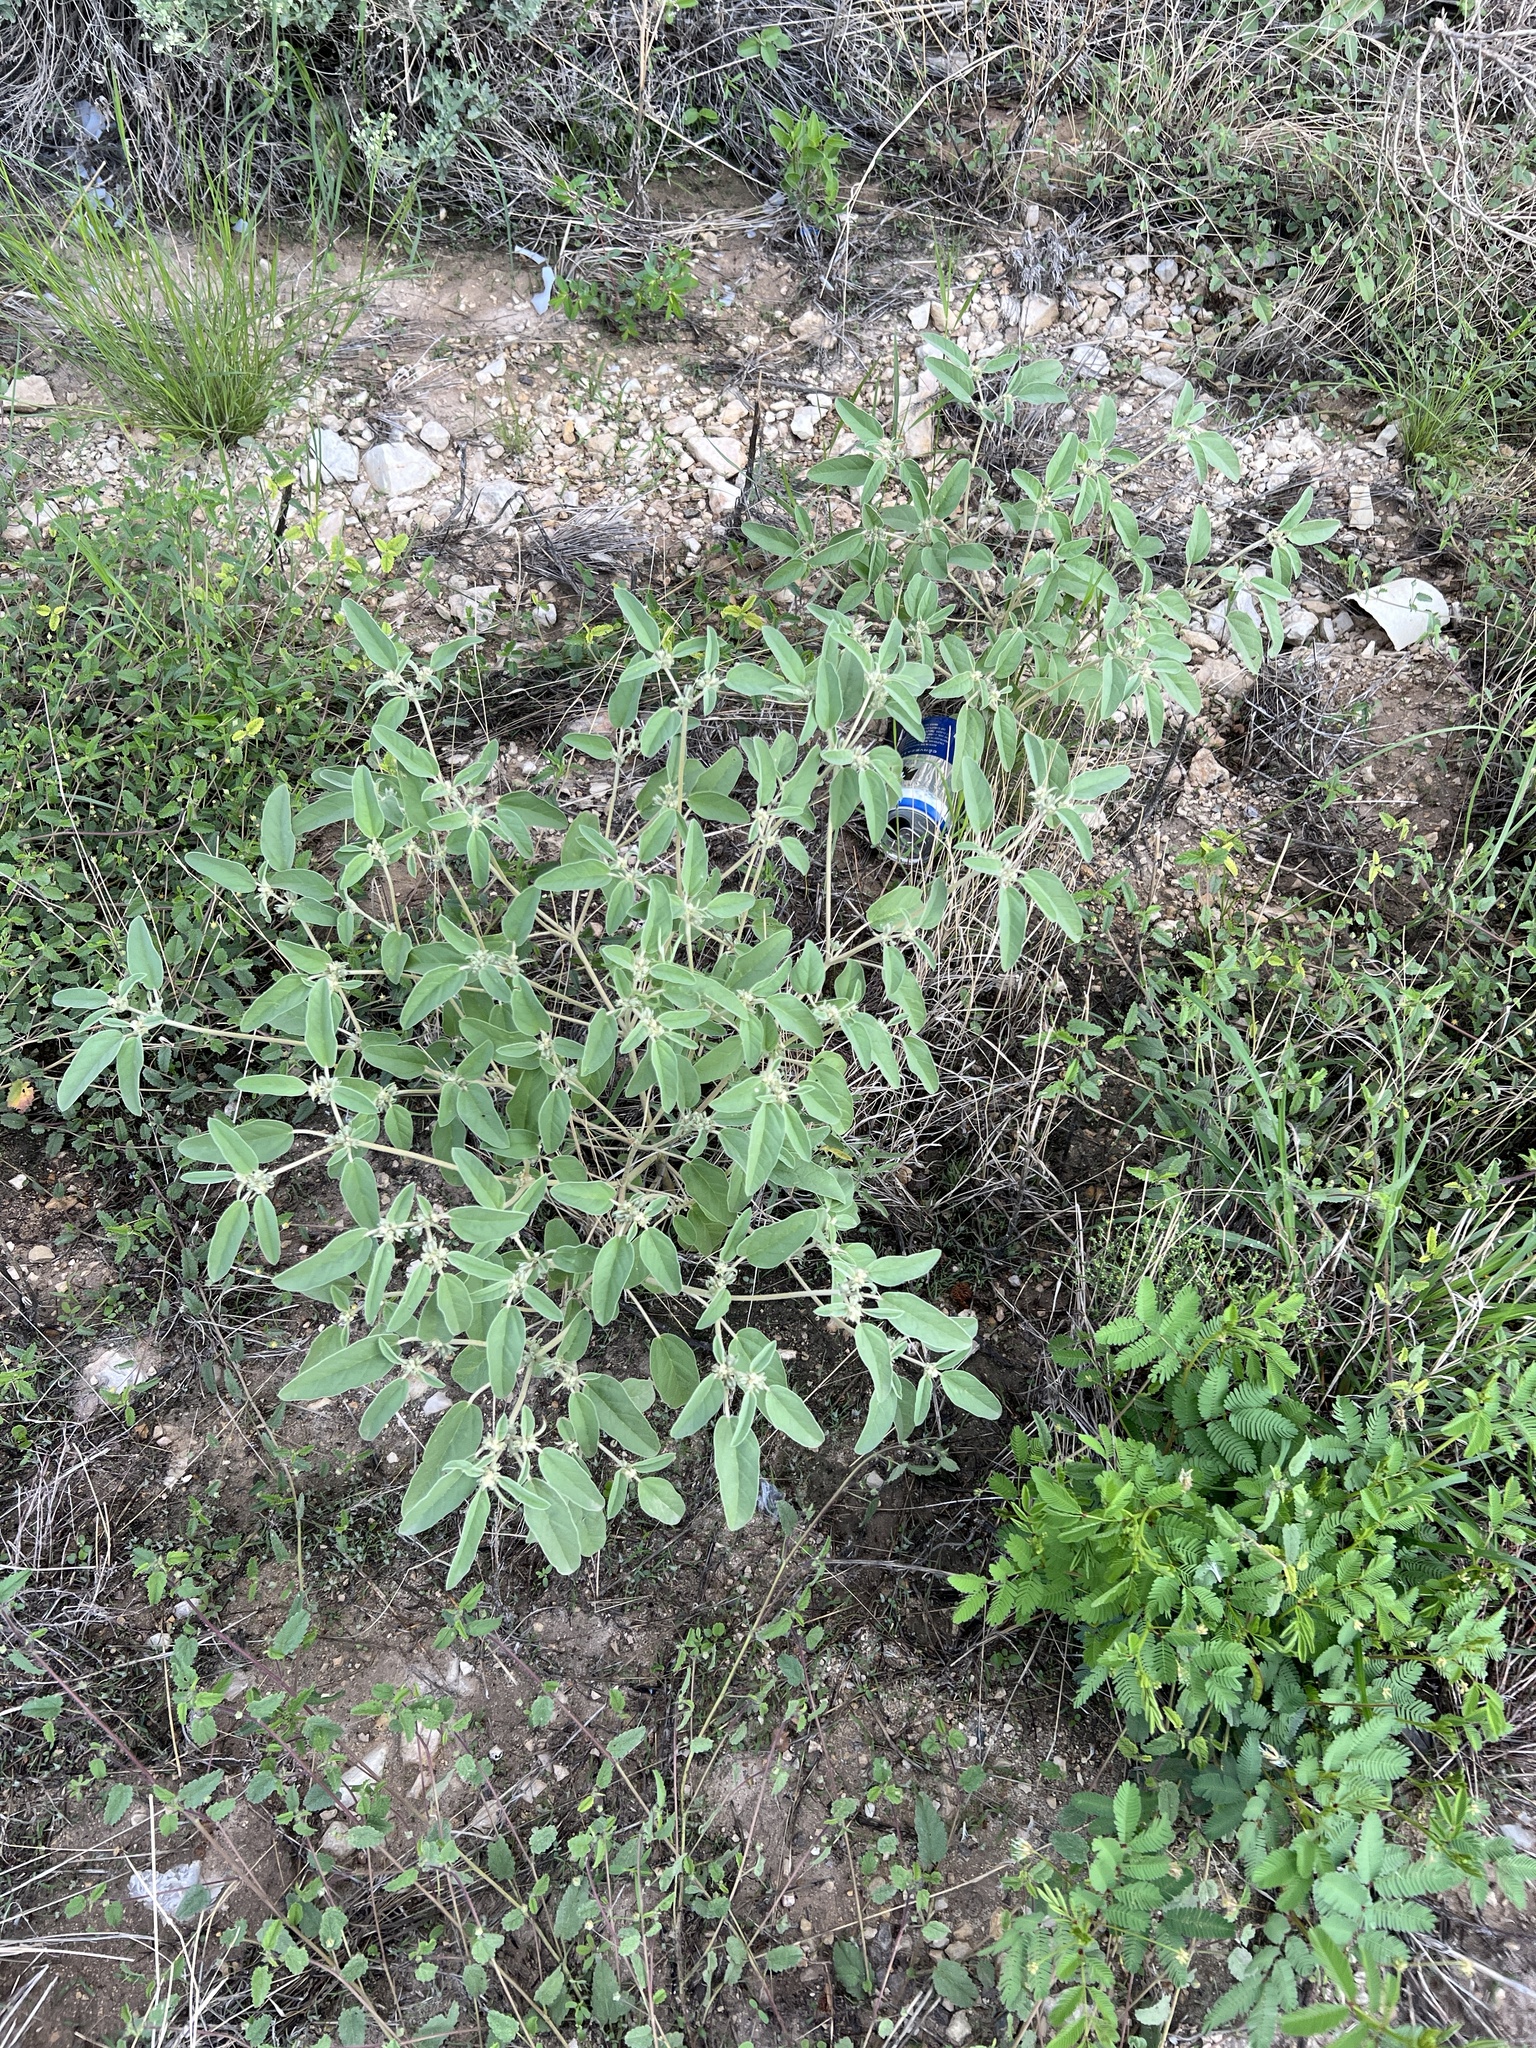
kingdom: Plantae
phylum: Tracheophyta
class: Magnoliopsida
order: Malpighiales
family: Euphorbiaceae
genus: Croton
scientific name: Croton lindheimerianus
